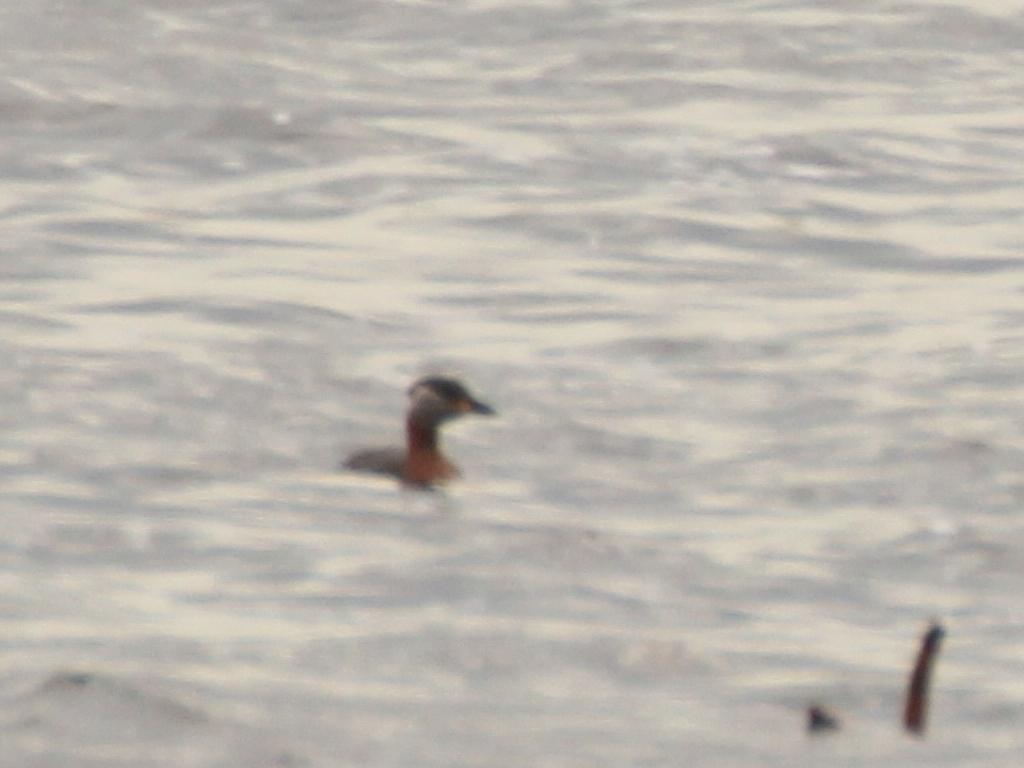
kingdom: Animalia
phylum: Chordata
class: Aves
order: Podicipediformes
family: Podicipedidae
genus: Podiceps
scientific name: Podiceps grisegena
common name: Red-necked grebe
